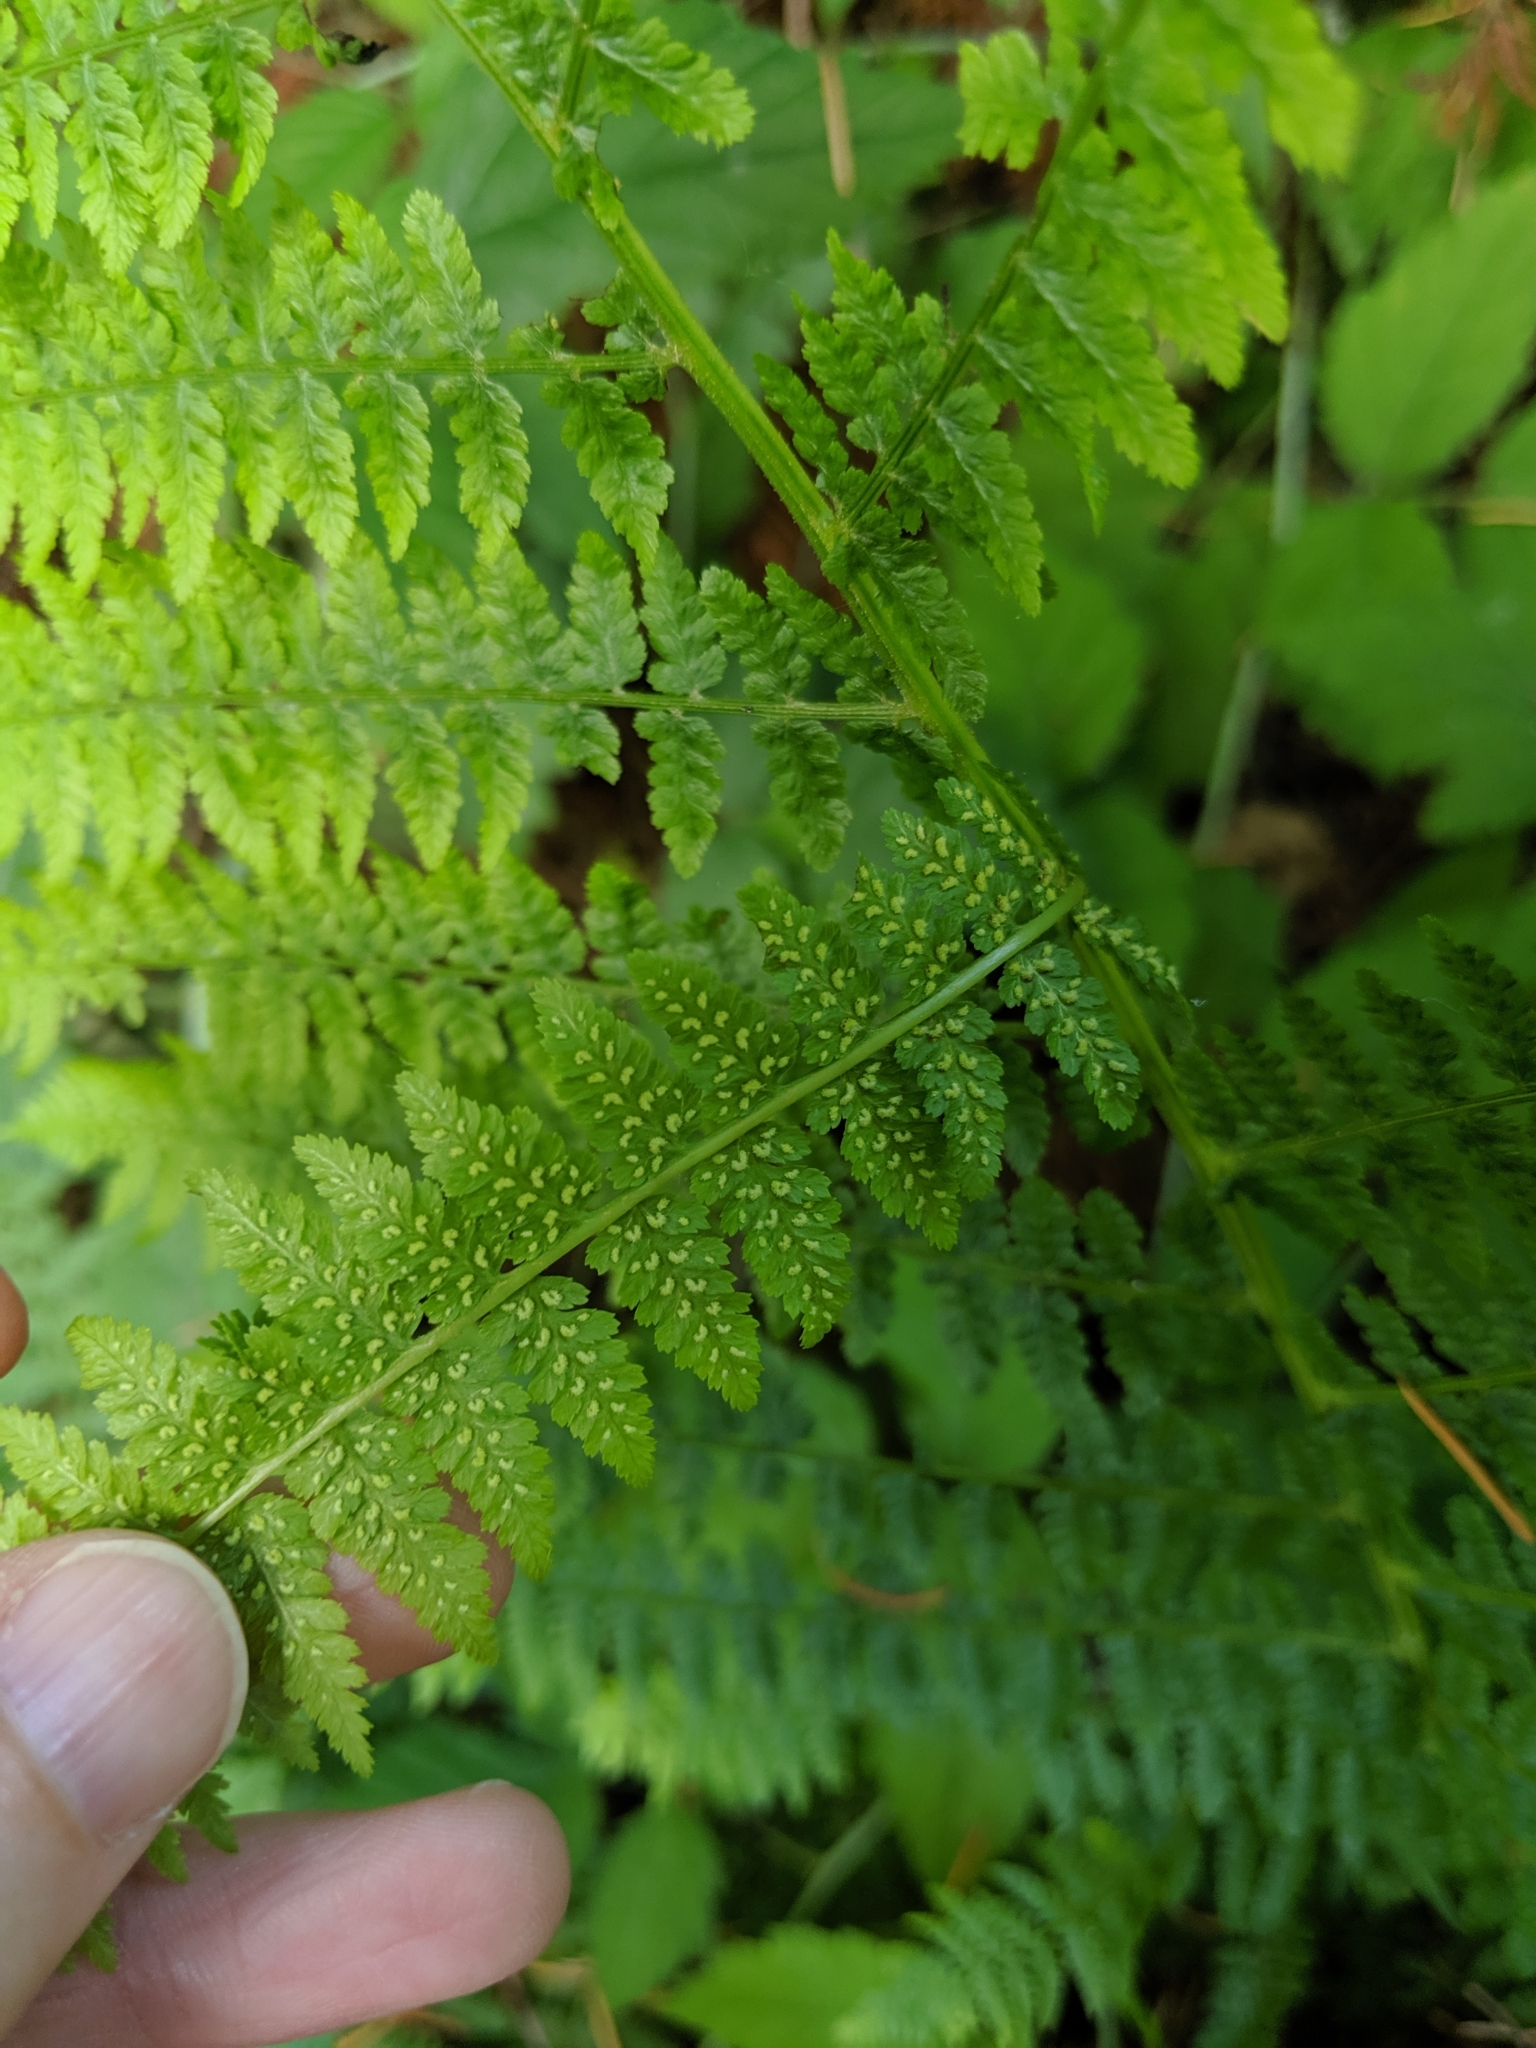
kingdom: Plantae
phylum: Tracheophyta
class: Polypodiopsida
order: Polypodiales
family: Athyriaceae
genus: Athyrium
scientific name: Athyrium filix-femina
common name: Lady fern
